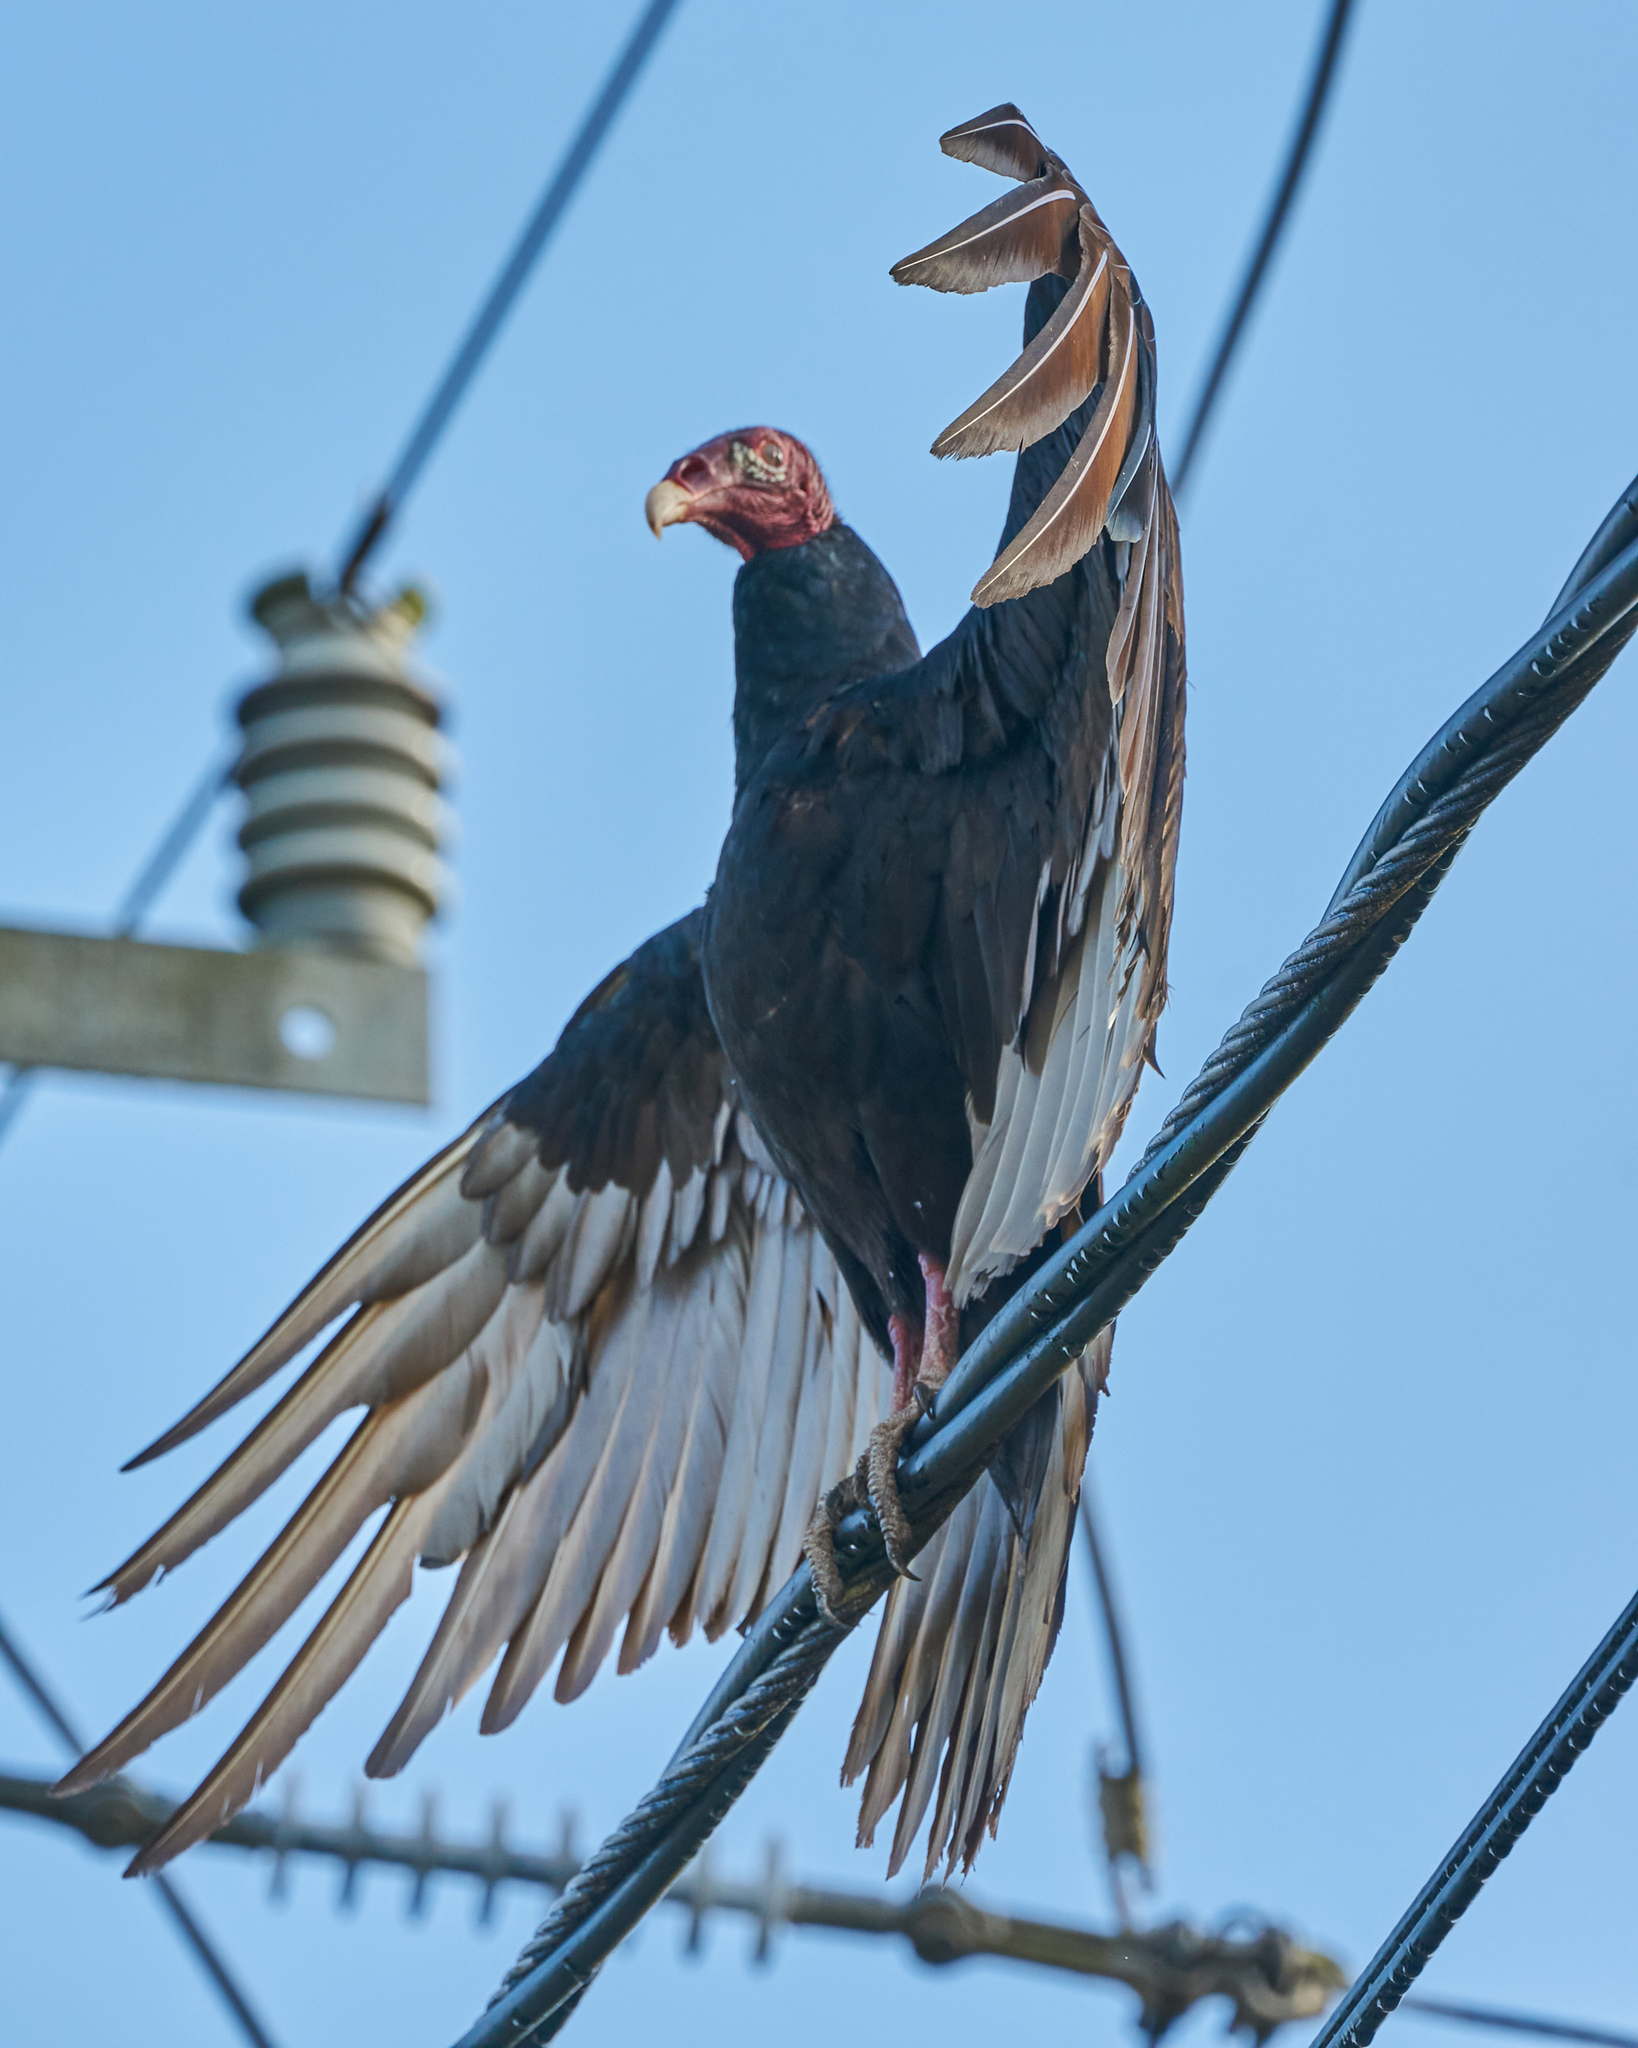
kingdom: Animalia
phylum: Chordata
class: Aves
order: Accipitriformes
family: Cathartidae
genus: Cathartes
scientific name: Cathartes aura
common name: Turkey vulture
